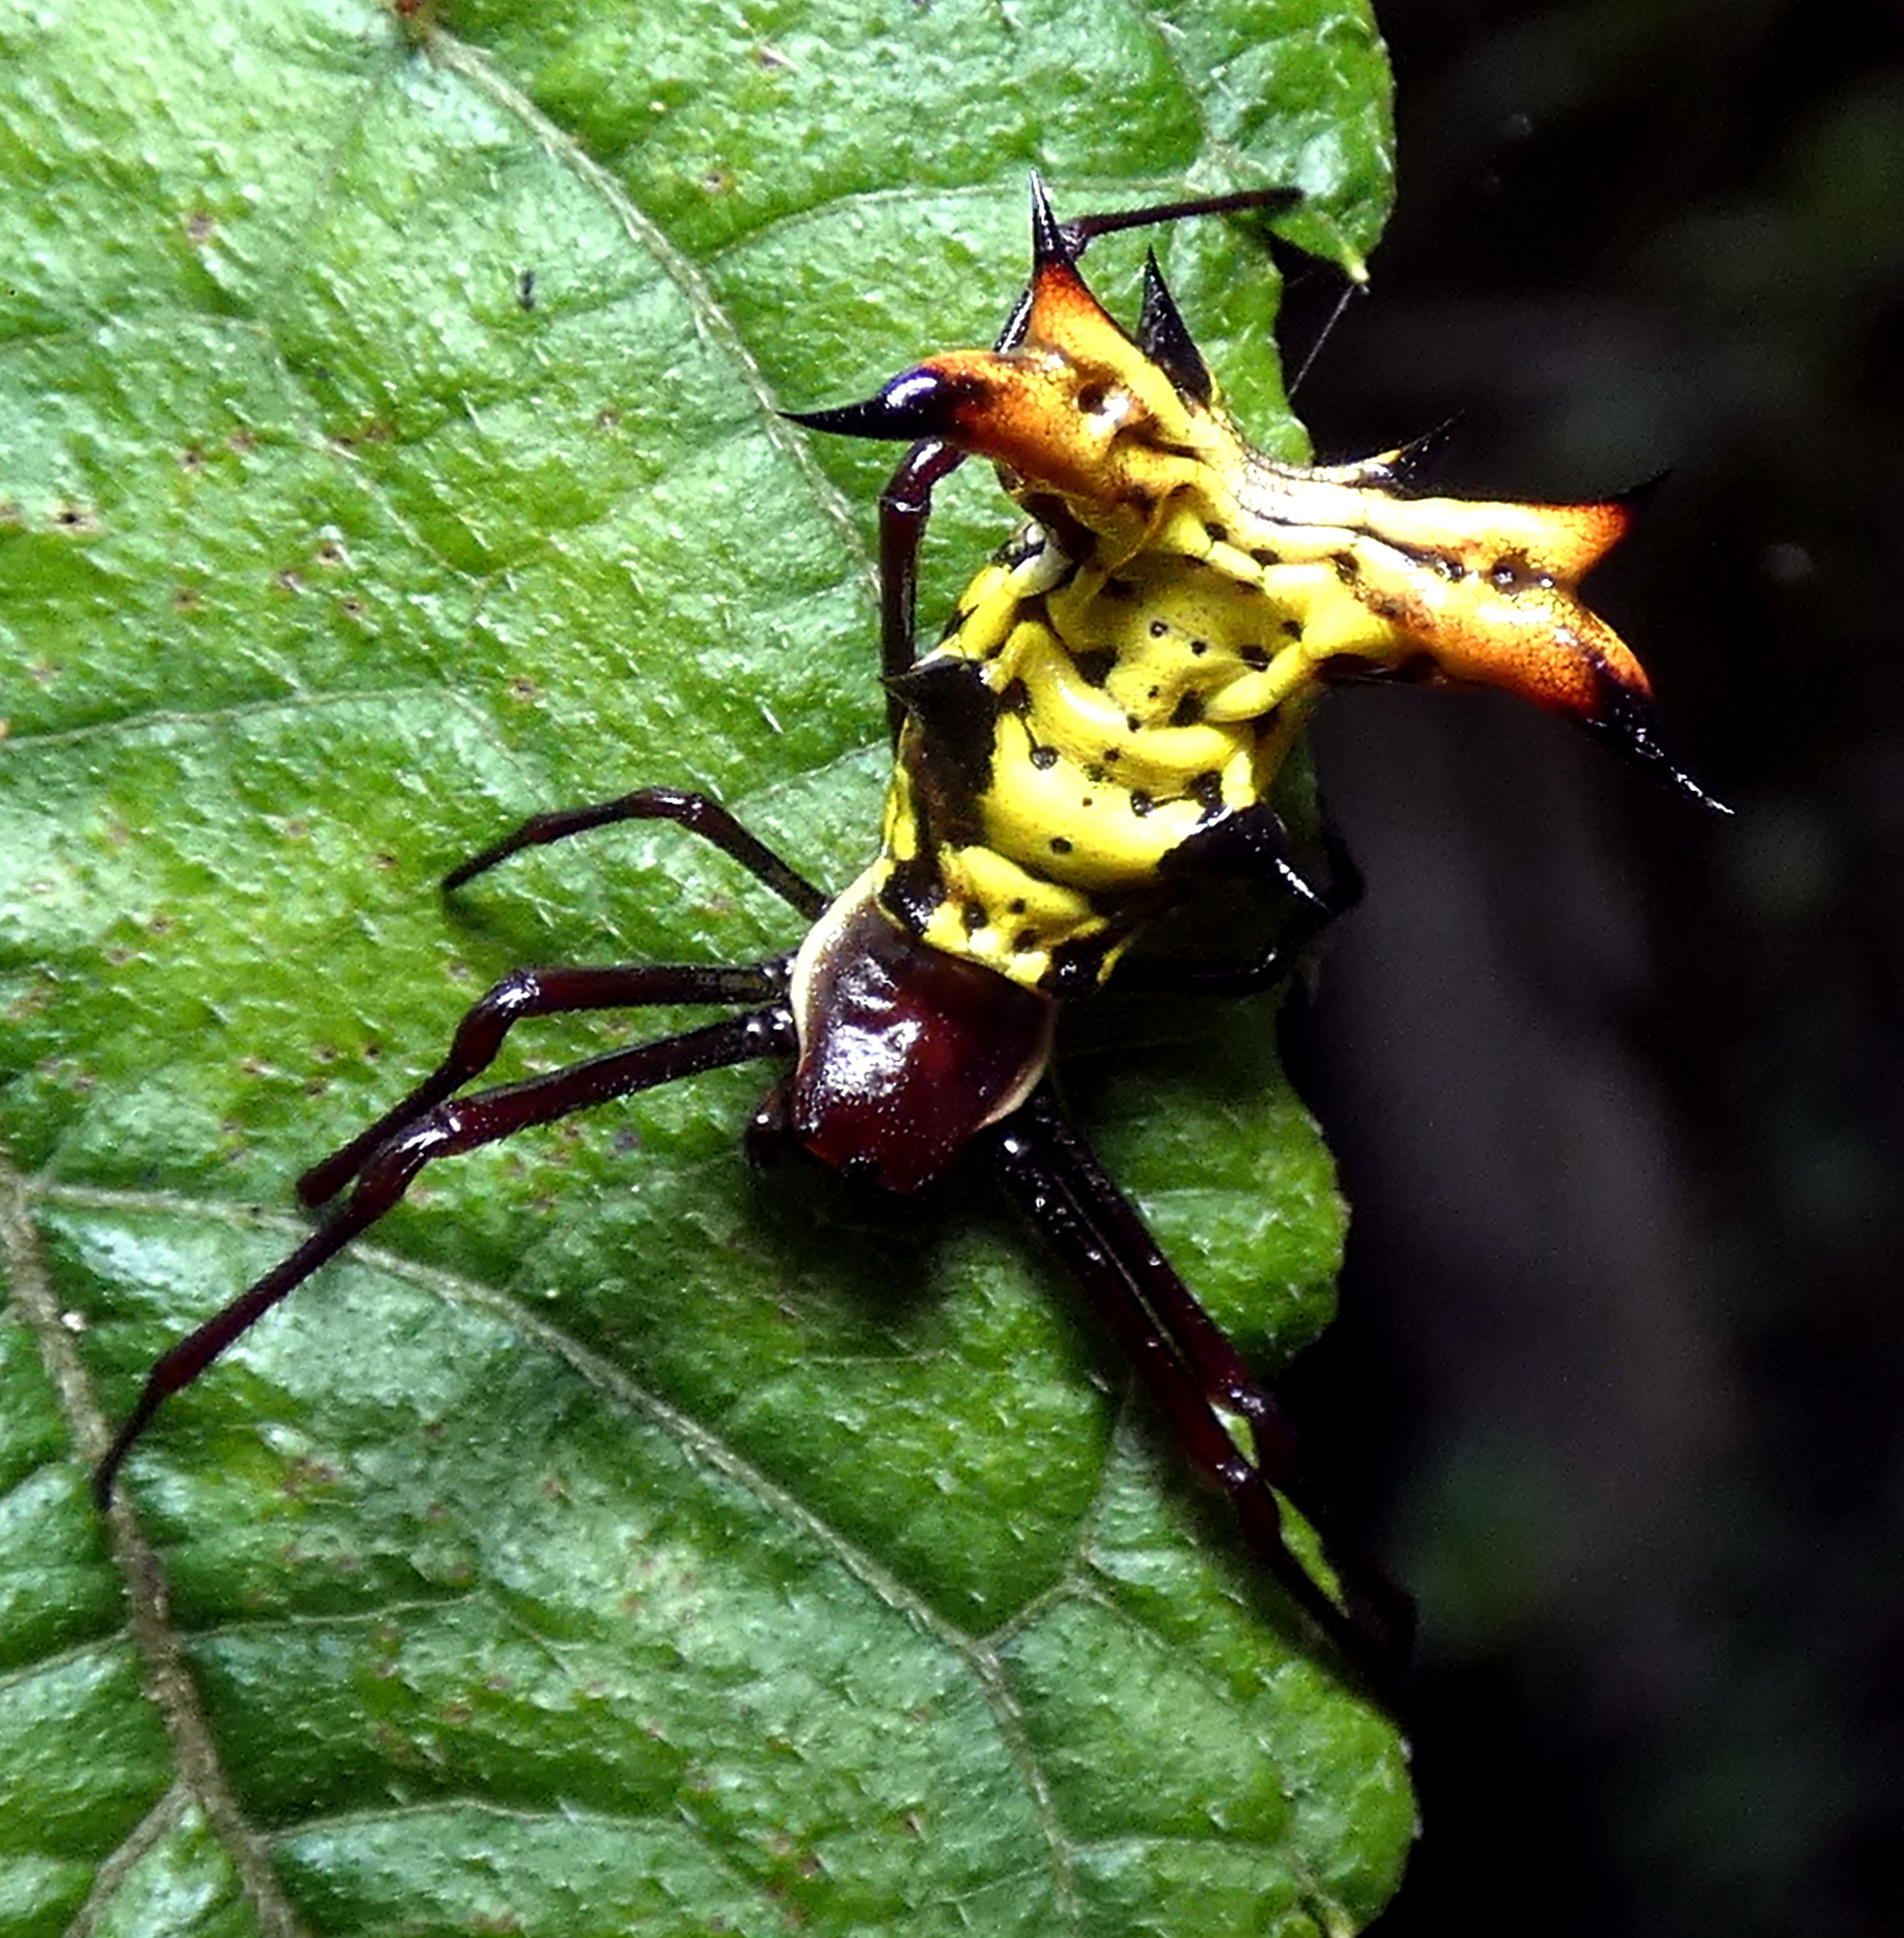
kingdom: Animalia
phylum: Arthropoda
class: Arachnida
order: Araneae
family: Araneidae
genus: Micrathena
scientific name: Micrathena fissispina
